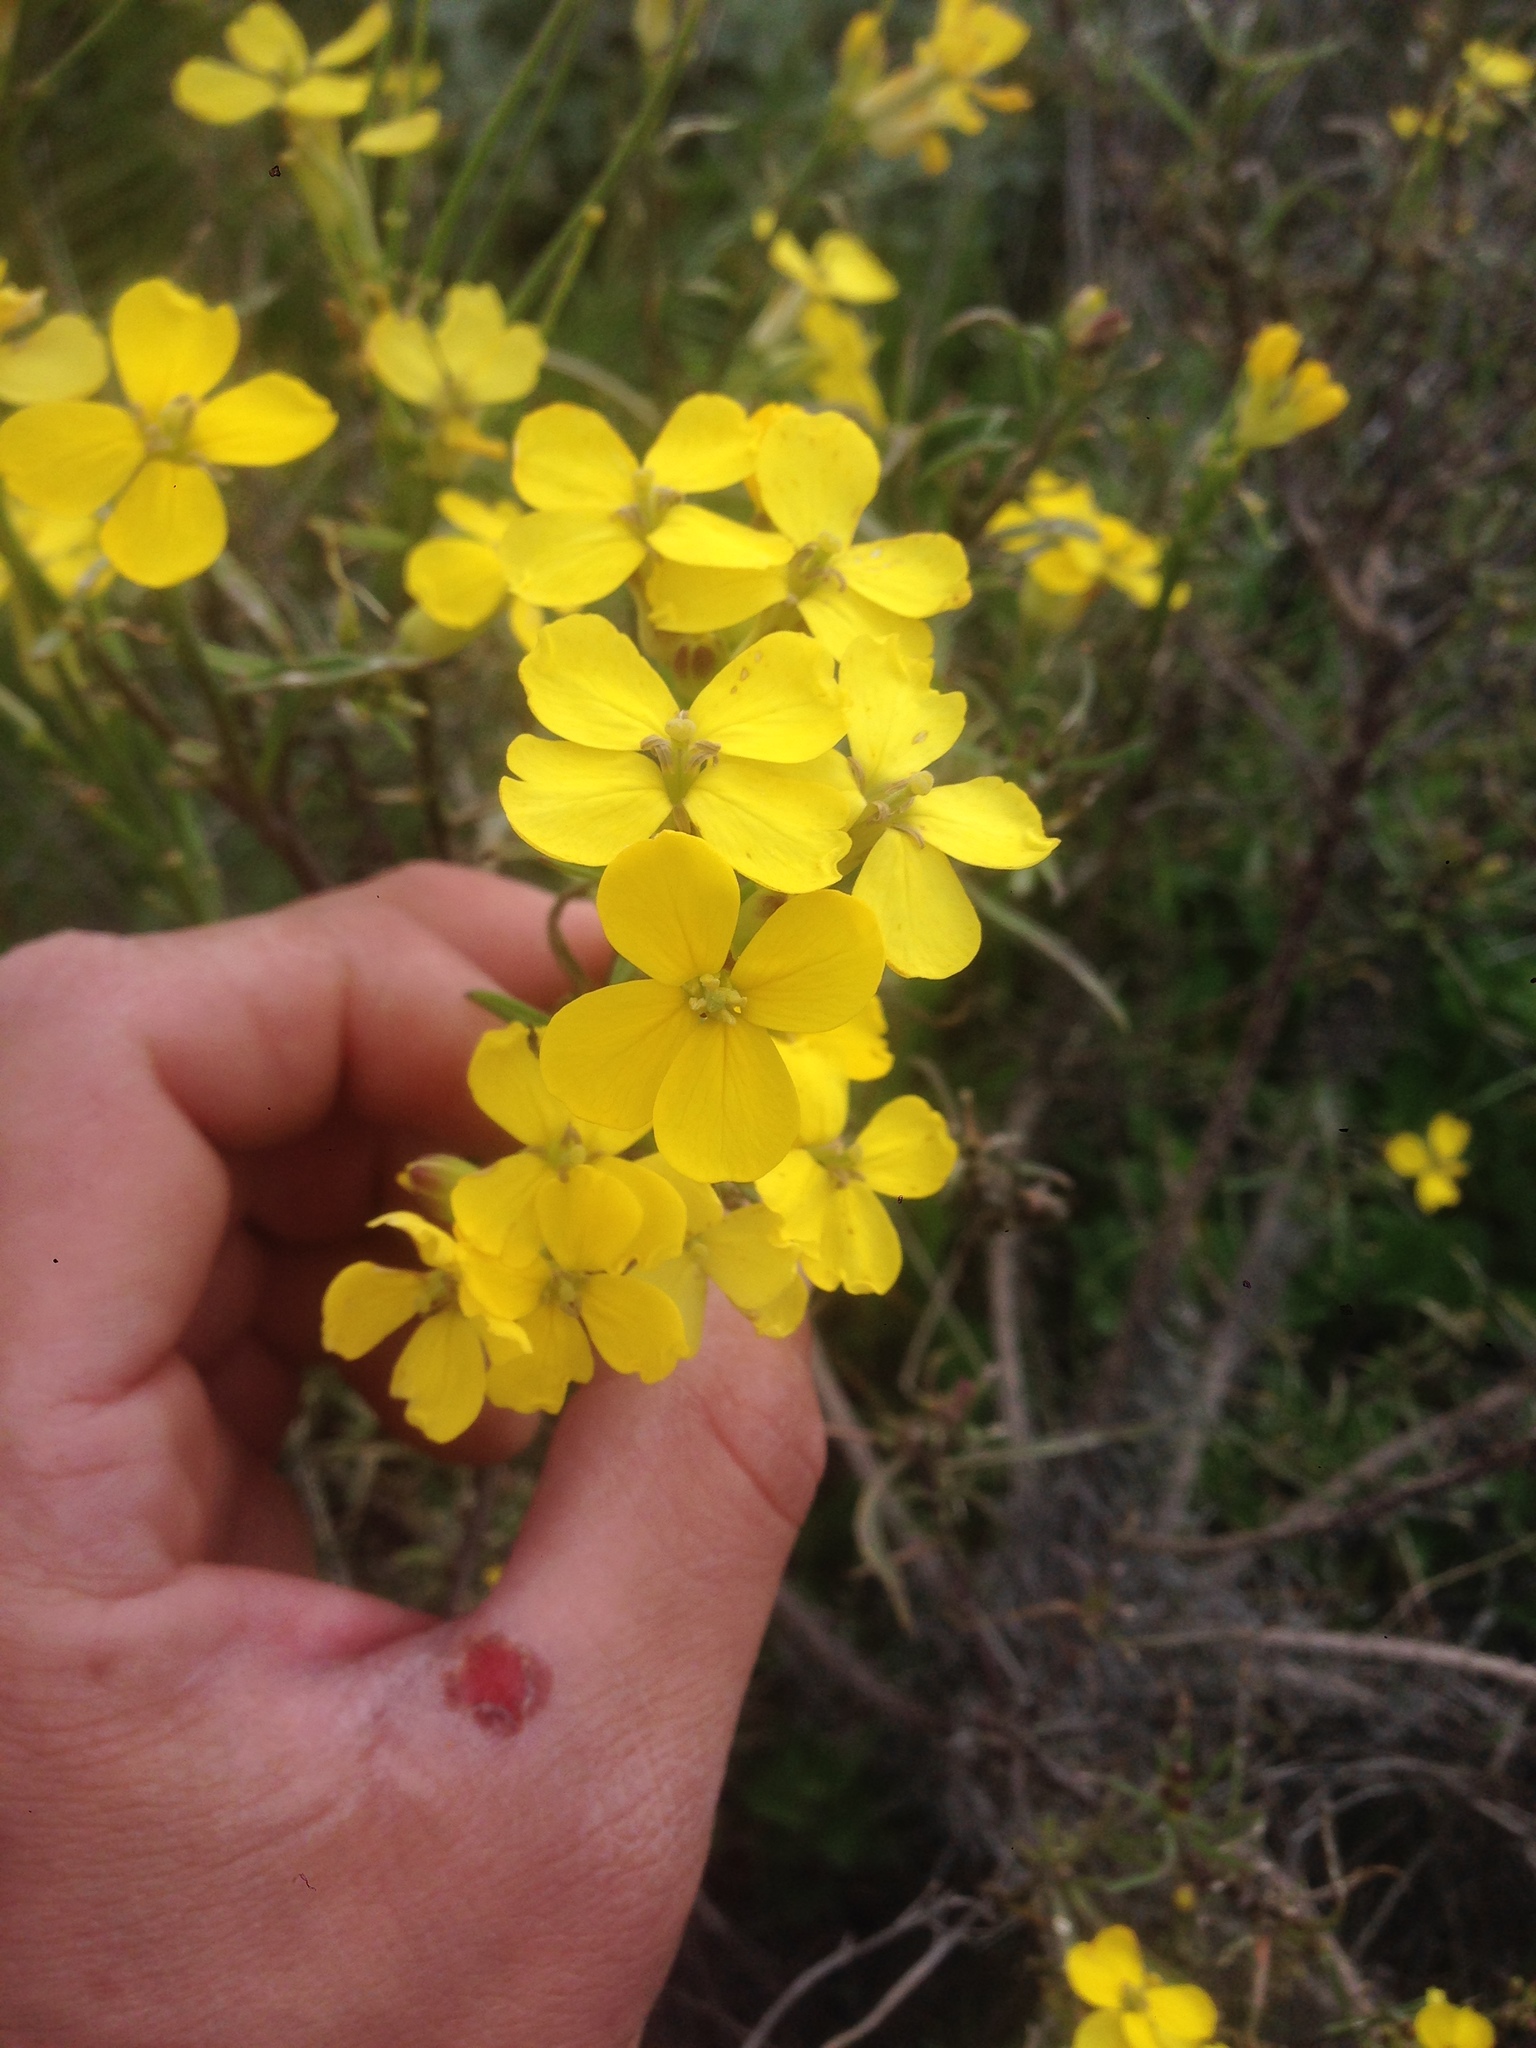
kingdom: Plantae
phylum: Tracheophyta
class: Magnoliopsida
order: Brassicales
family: Brassicaceae
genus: Erysimum
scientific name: Erysimum insulare
